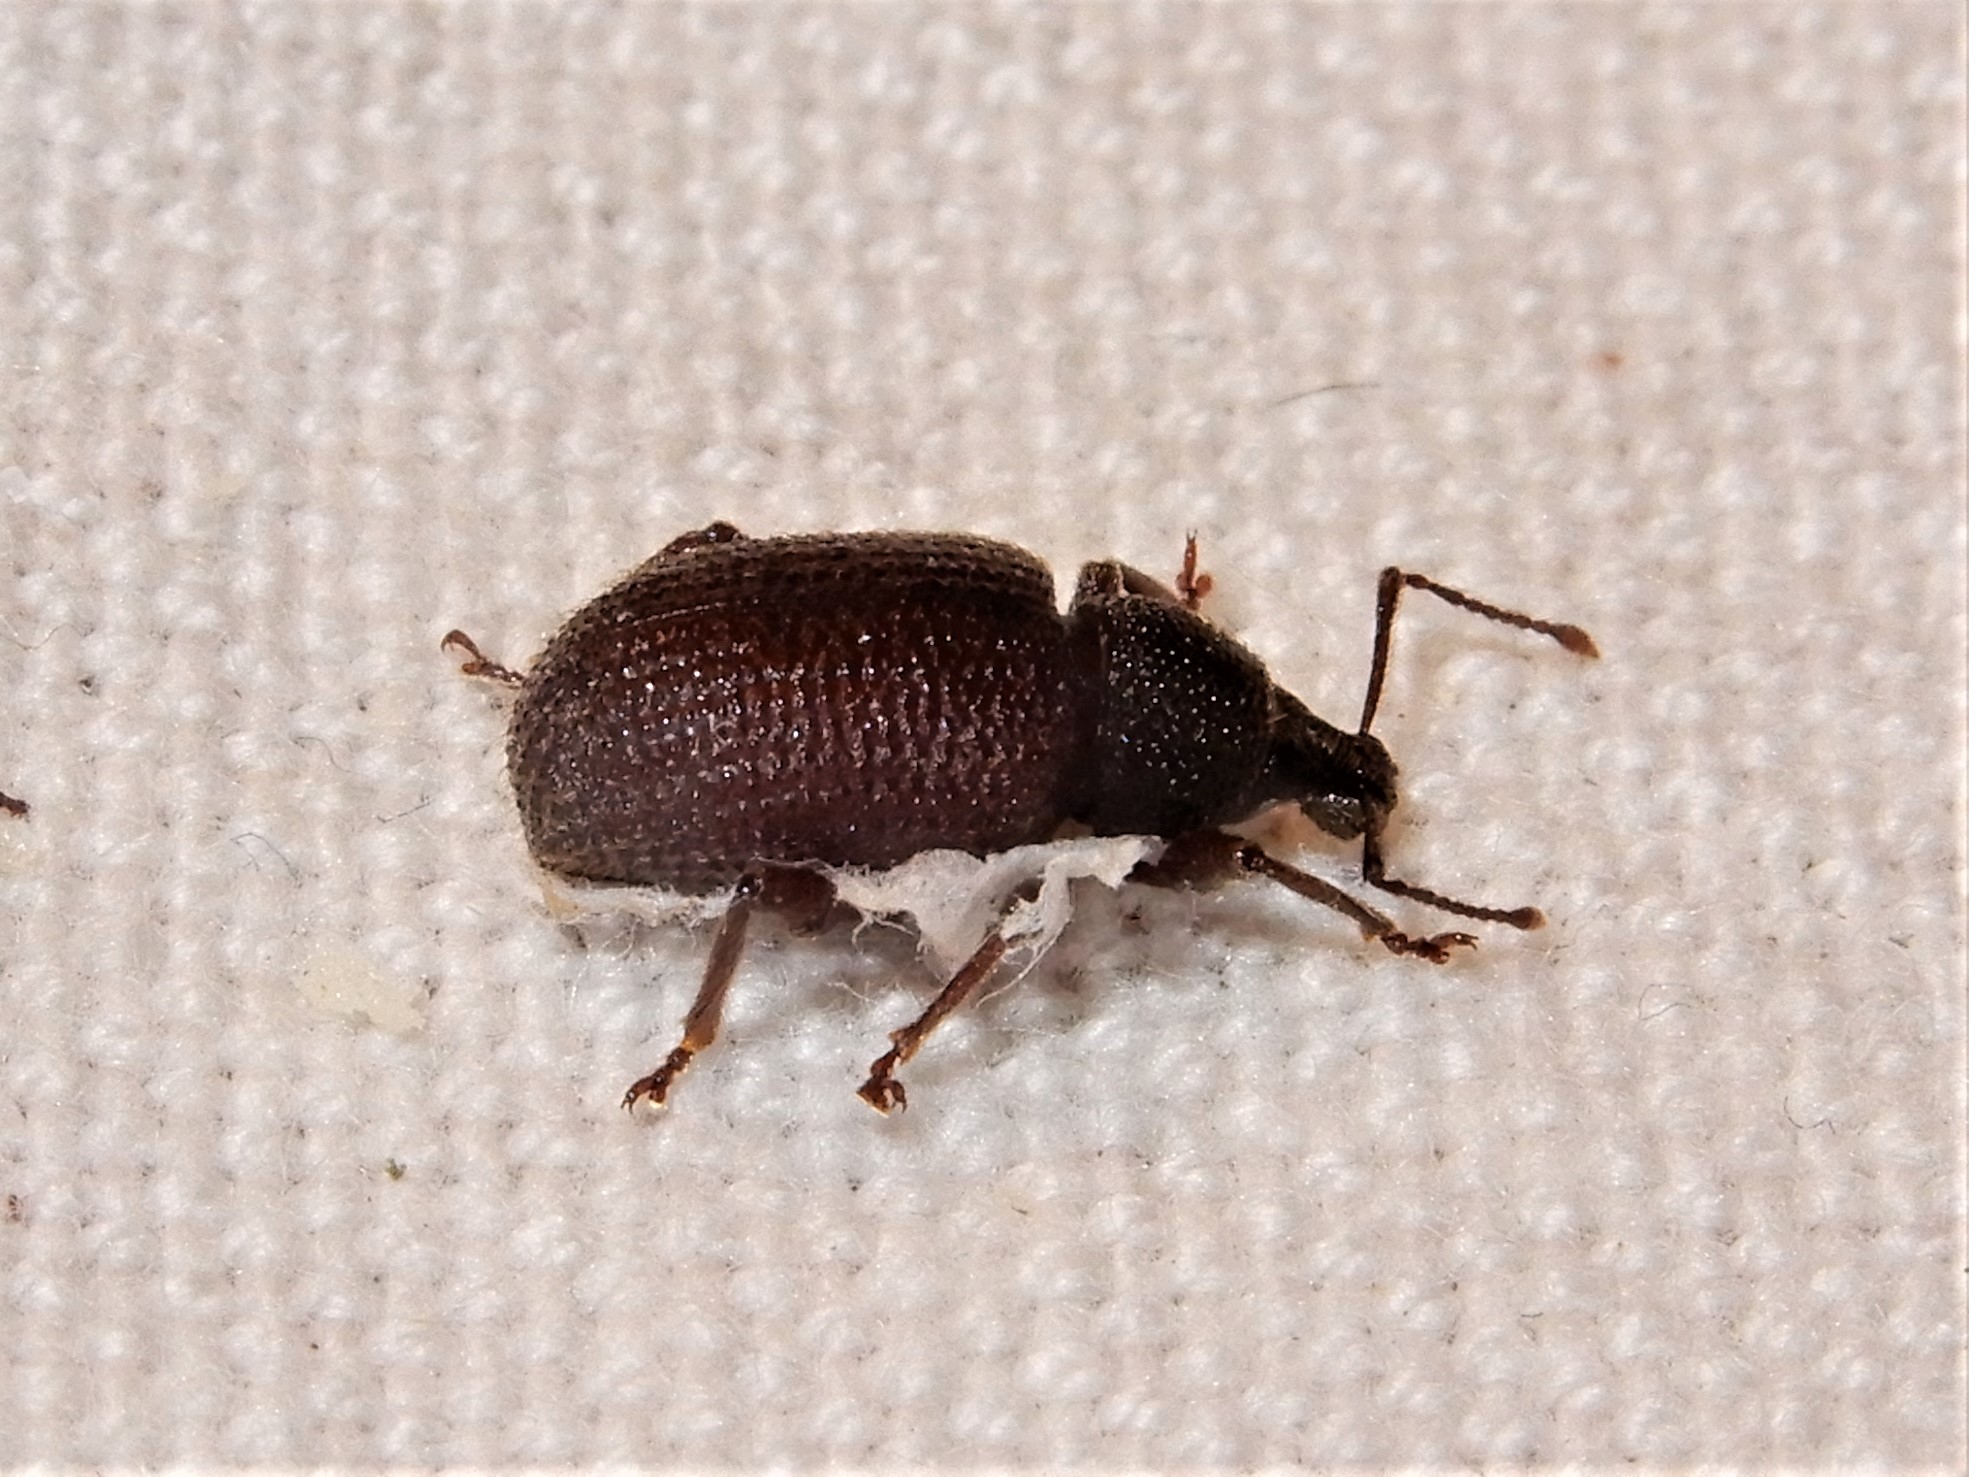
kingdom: Animalia
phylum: Arthropoda
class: Insecta
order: Coleoptera
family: Curculionidae
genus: Otiorhynchus
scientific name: Otiorhynchus rugosostriatus
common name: Weevil
